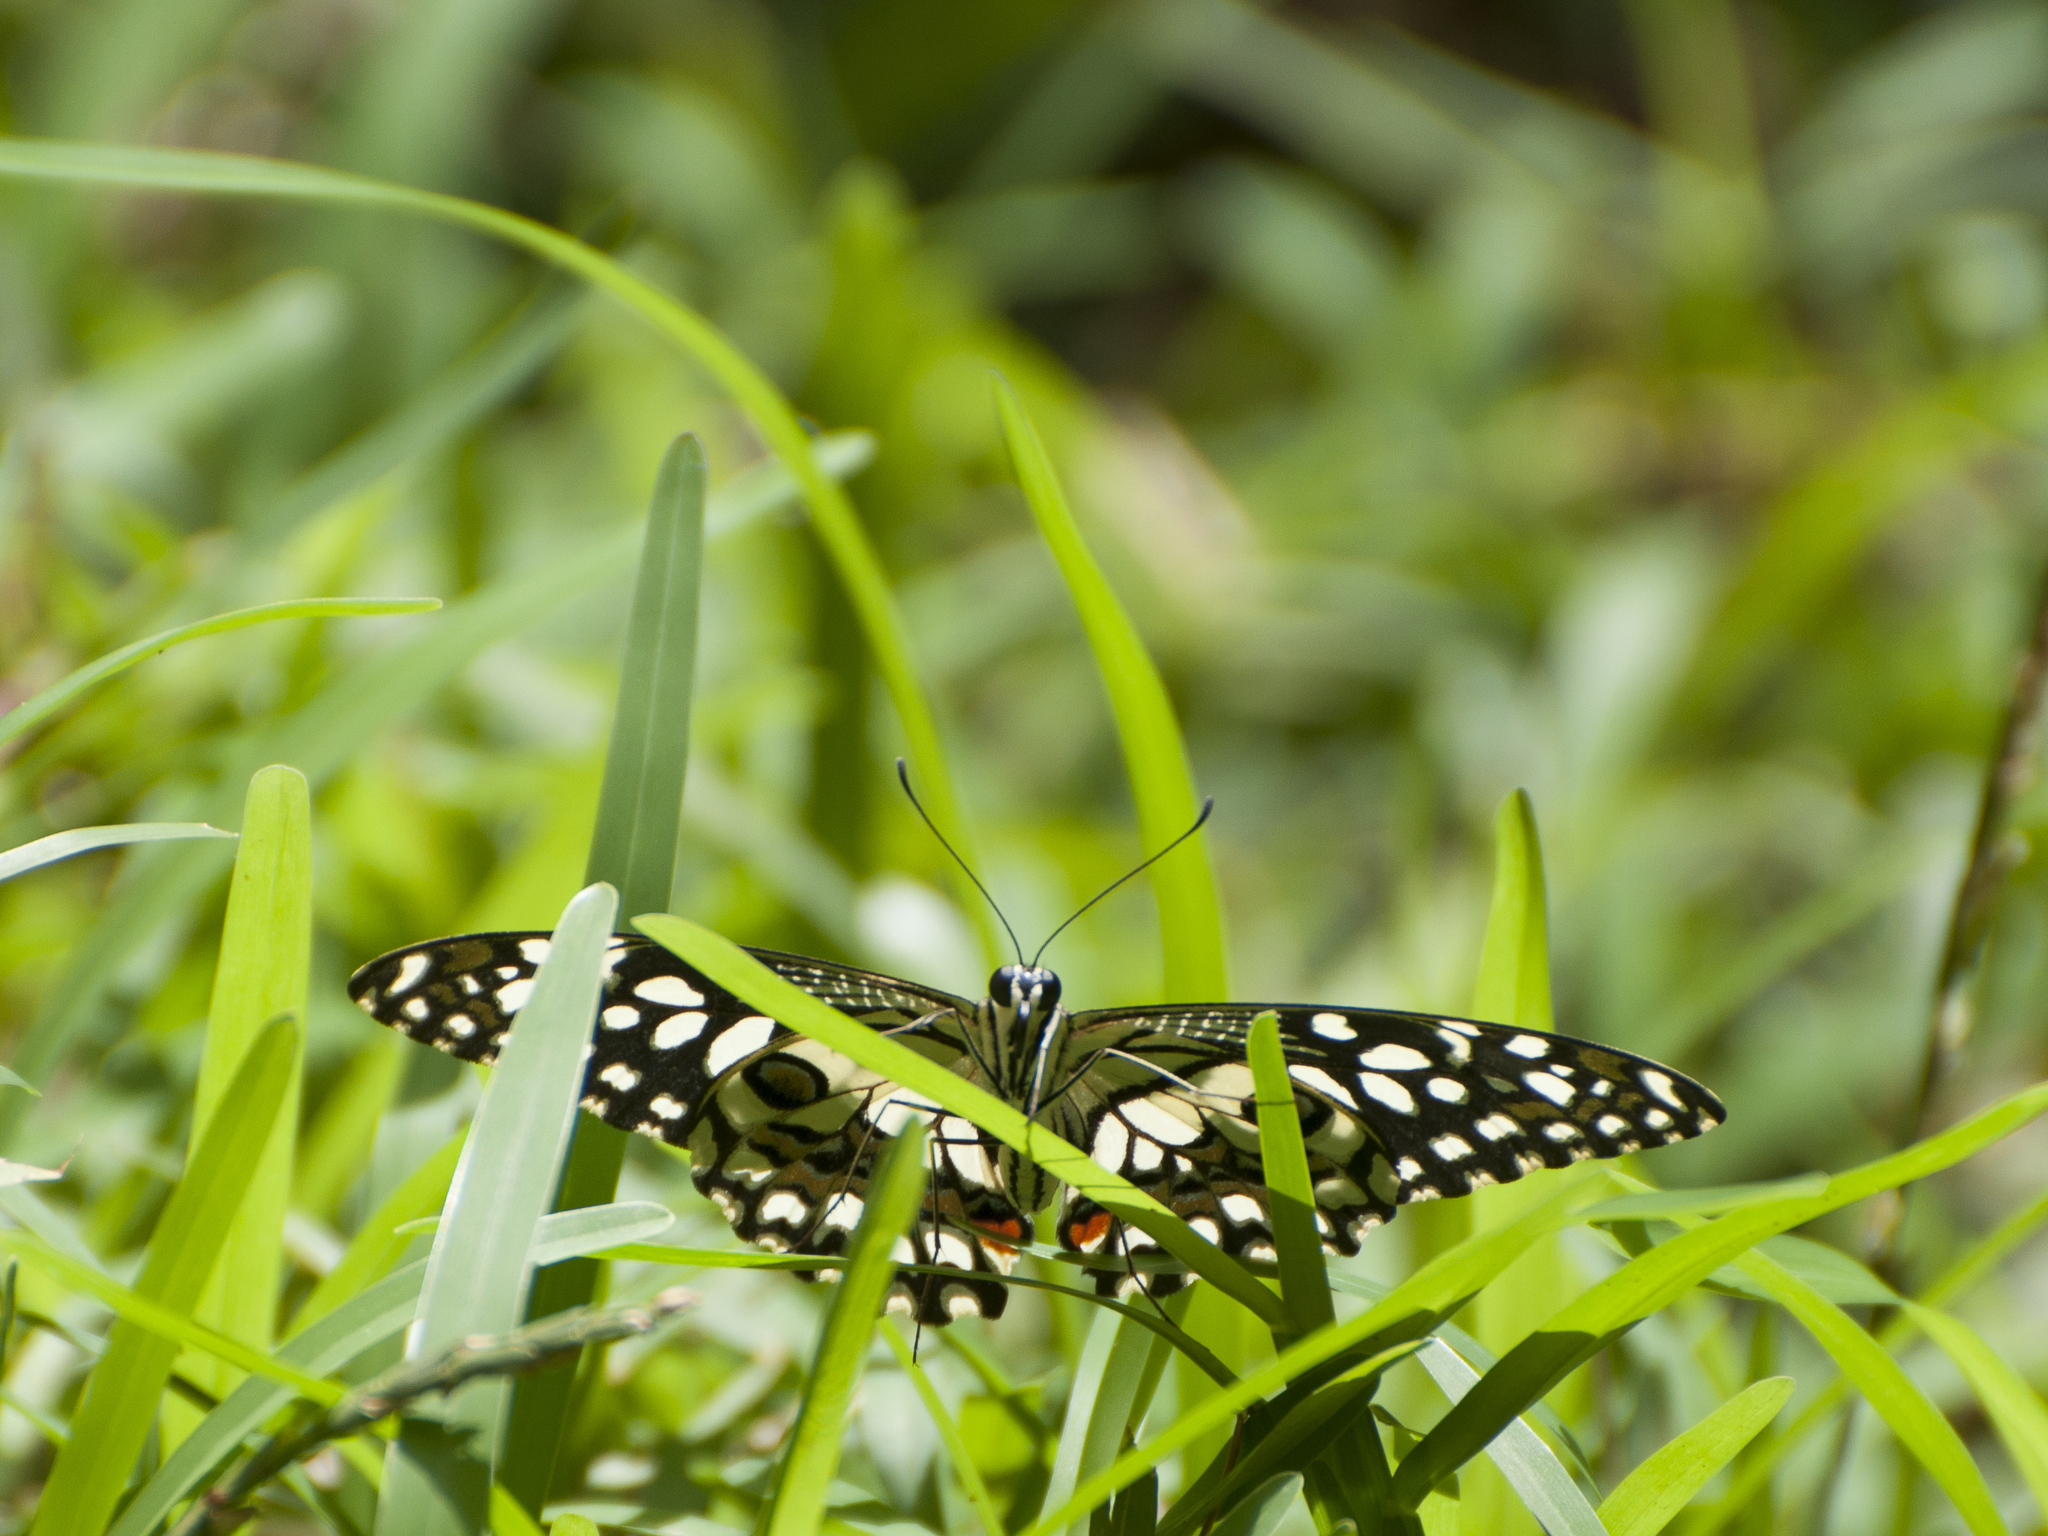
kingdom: Animalia
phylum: Arthropoda
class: Insecta
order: Lepidoptera
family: Papilionidae
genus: Papilio
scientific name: Papilio demoleus
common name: Lime butterfly
